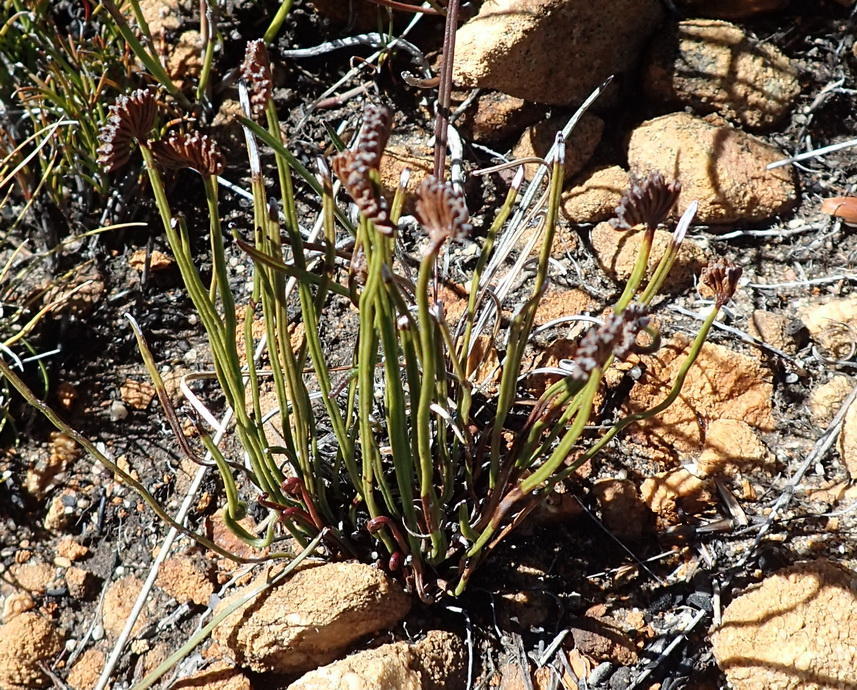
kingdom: Plantae
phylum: Tracheophyta
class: Polypodiopsida
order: Schizaeales
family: Schizaeaceae
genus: Schizaea
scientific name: Schizaea pectinata
